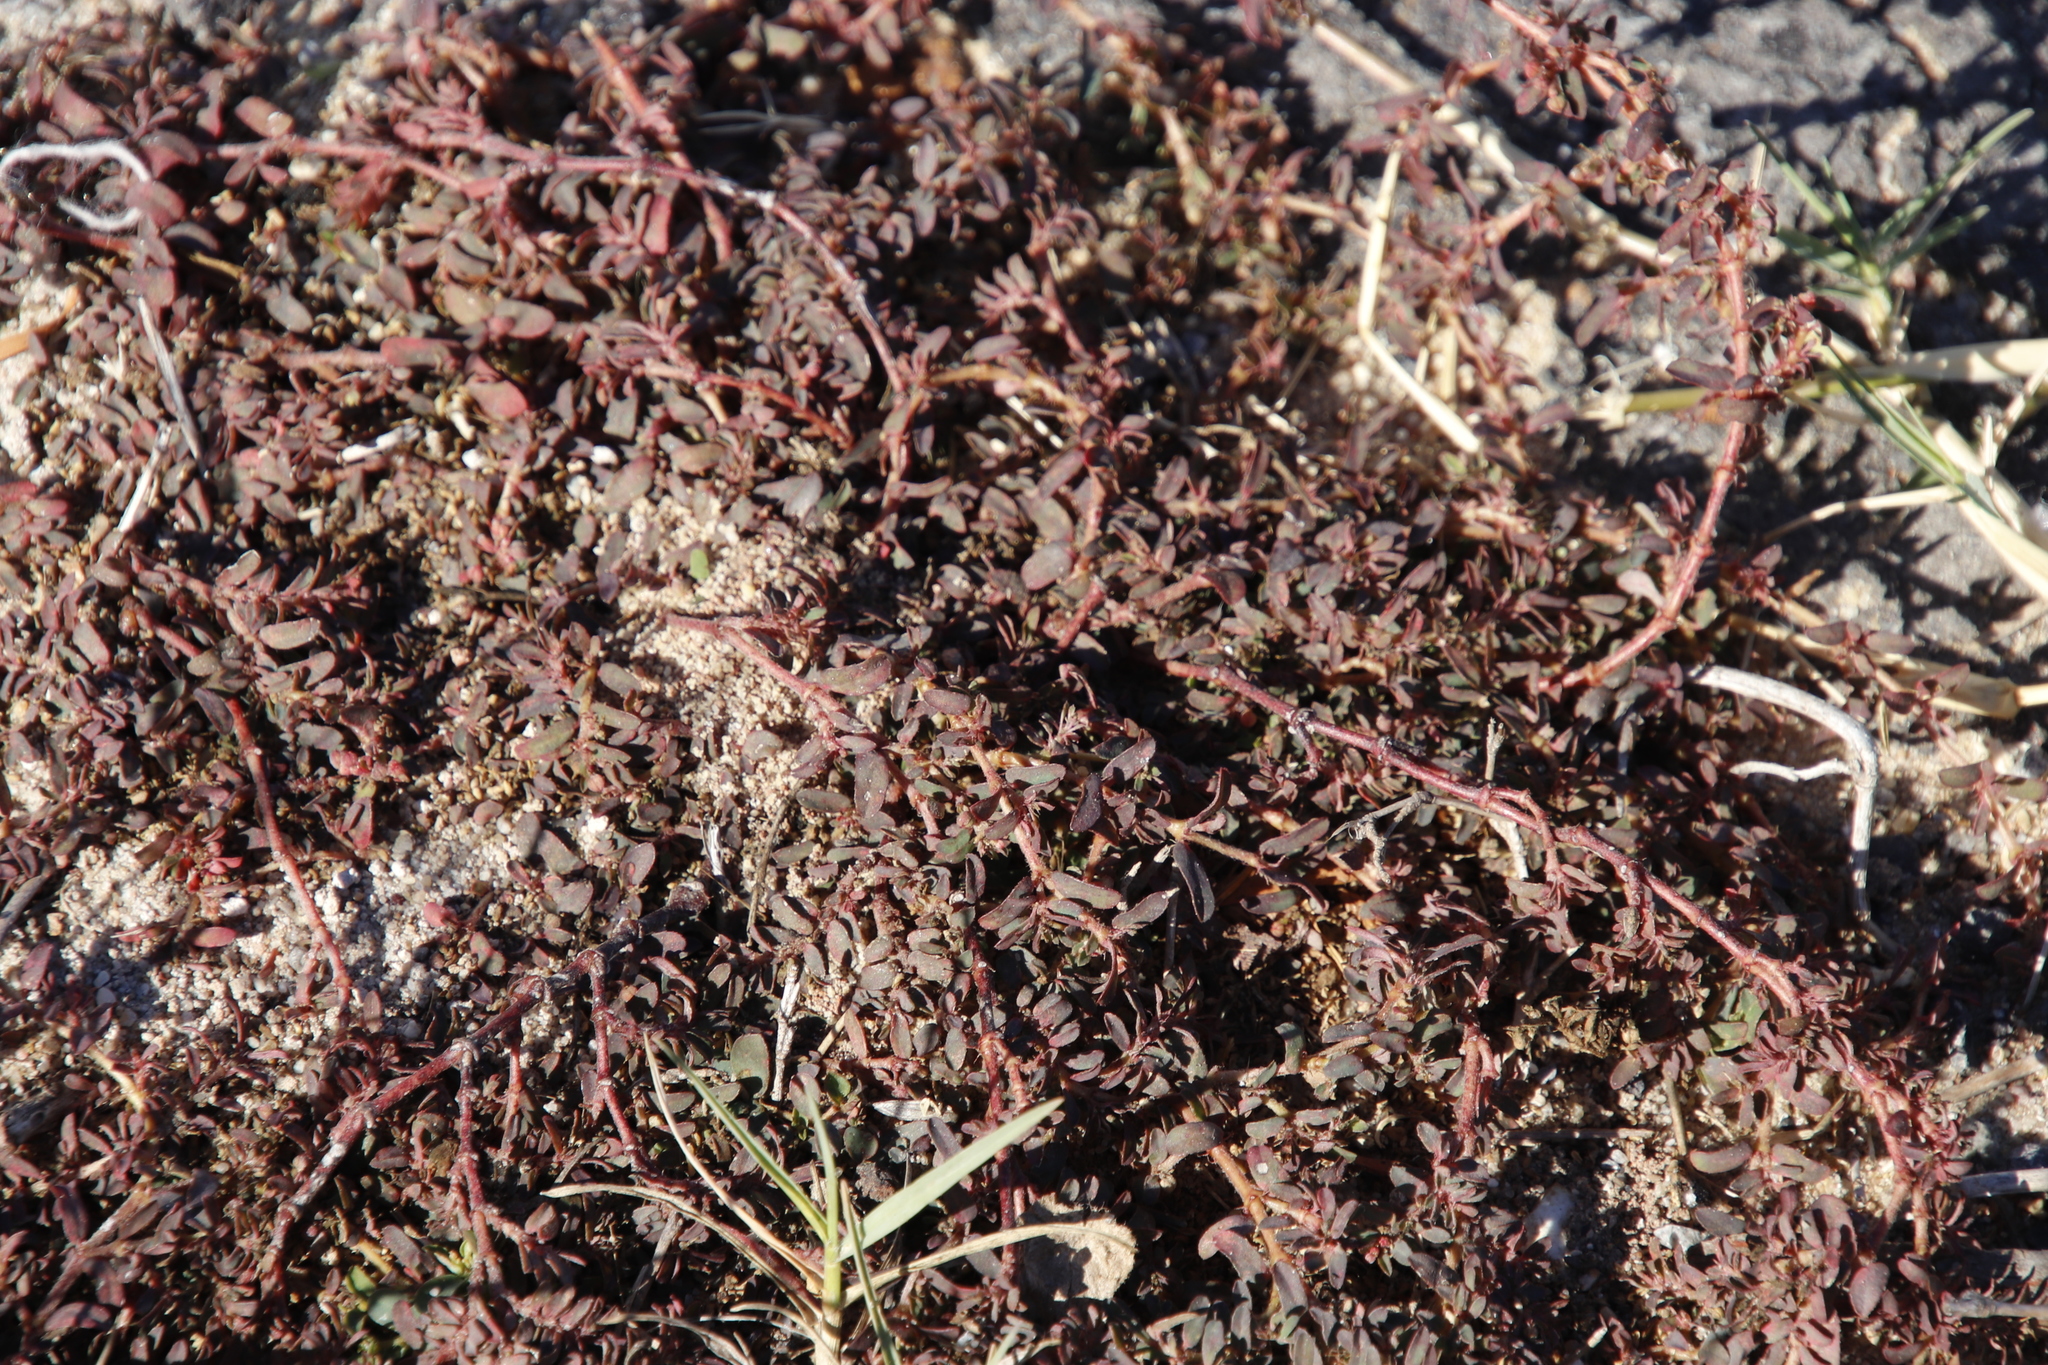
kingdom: Plantae
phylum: Tracheophyta
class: Magnoliopsida
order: Malpighiales
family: Euphorbiaceae
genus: Euphorbia
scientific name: Euphorbia maculata
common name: Spotted spurge
